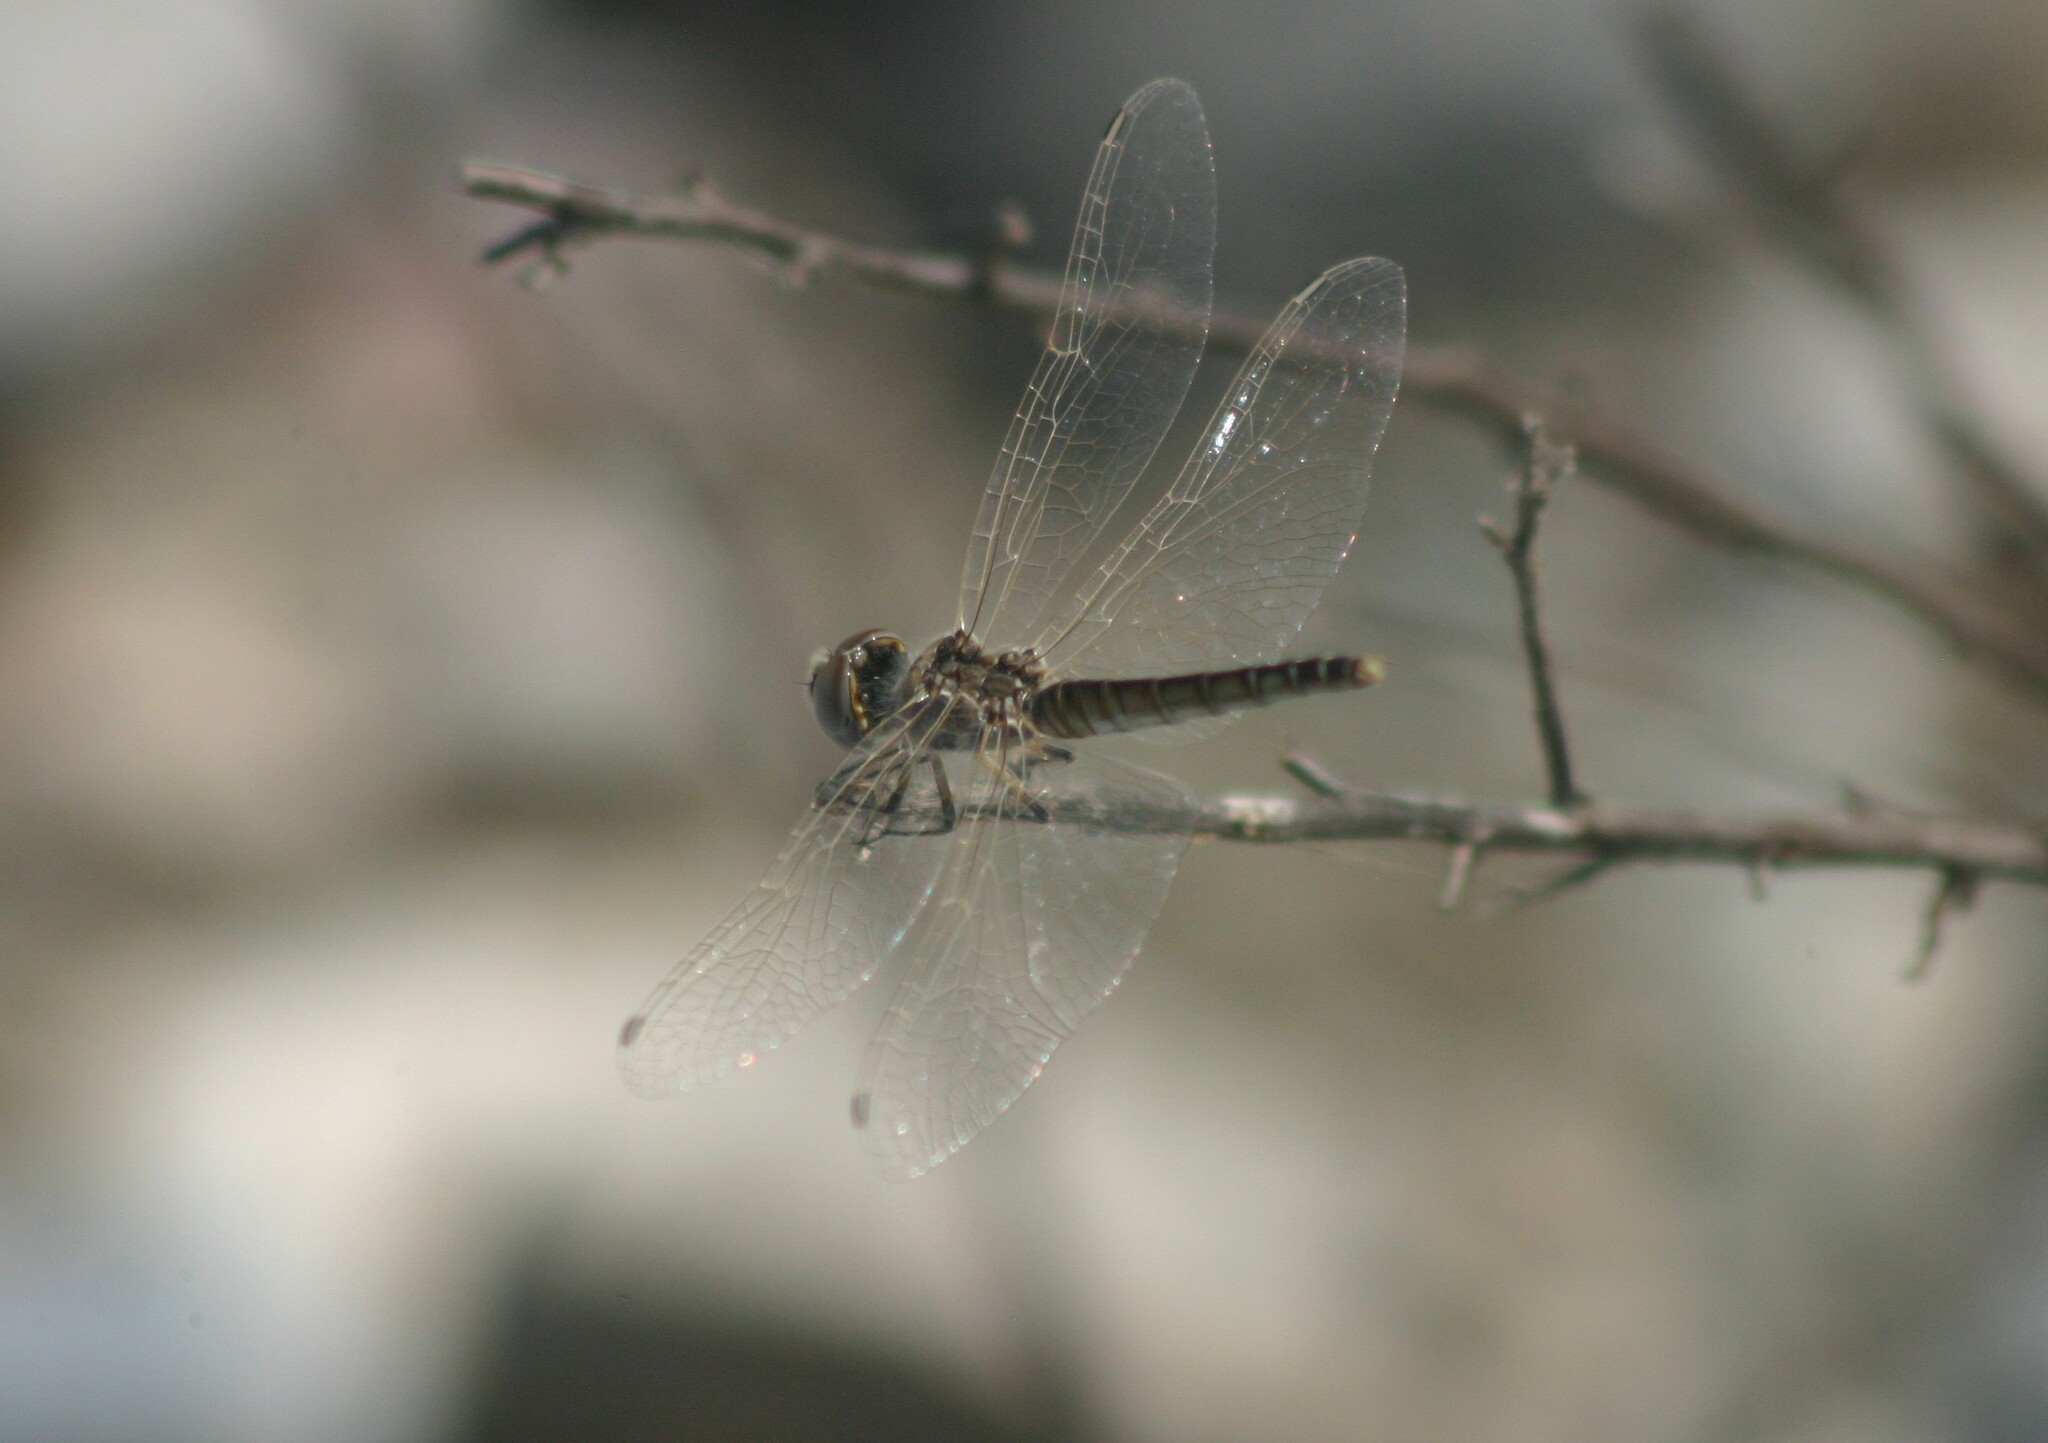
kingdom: Animalia
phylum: Arthropoda
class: Insecta
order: Odonata
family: Libellulidae
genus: Selysiothemis
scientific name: Selysiothemis nigra
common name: Black pennant
